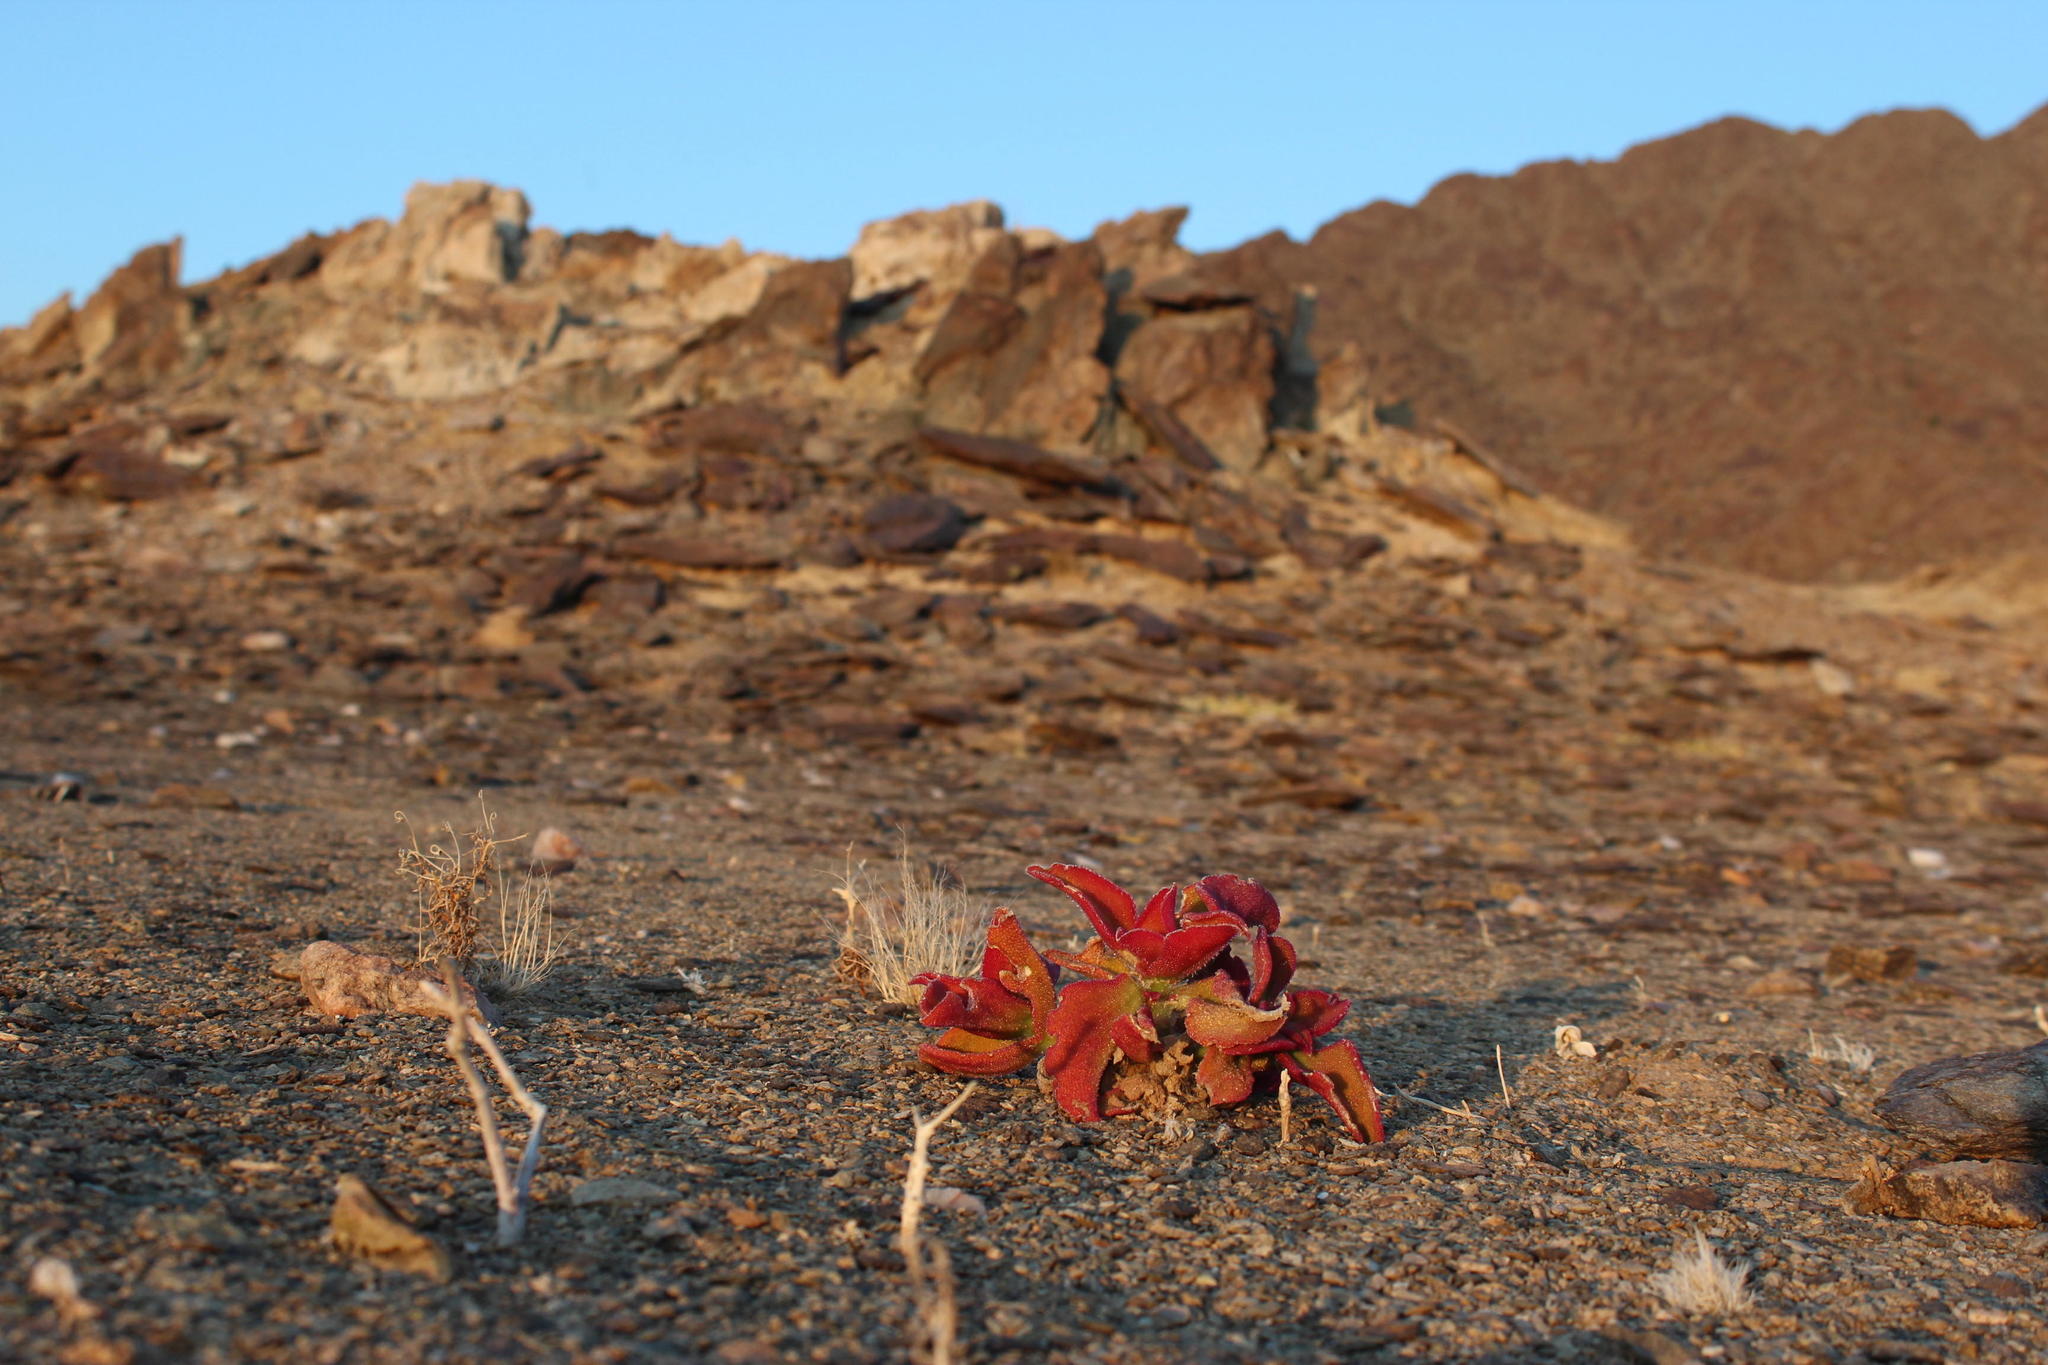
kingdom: Plantae
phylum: Tracheophyta
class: Magnoliopsida
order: Caryophyllales
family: Aizoaceae
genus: Mesembryanthemum
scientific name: Mesembryanthemum barklyi
